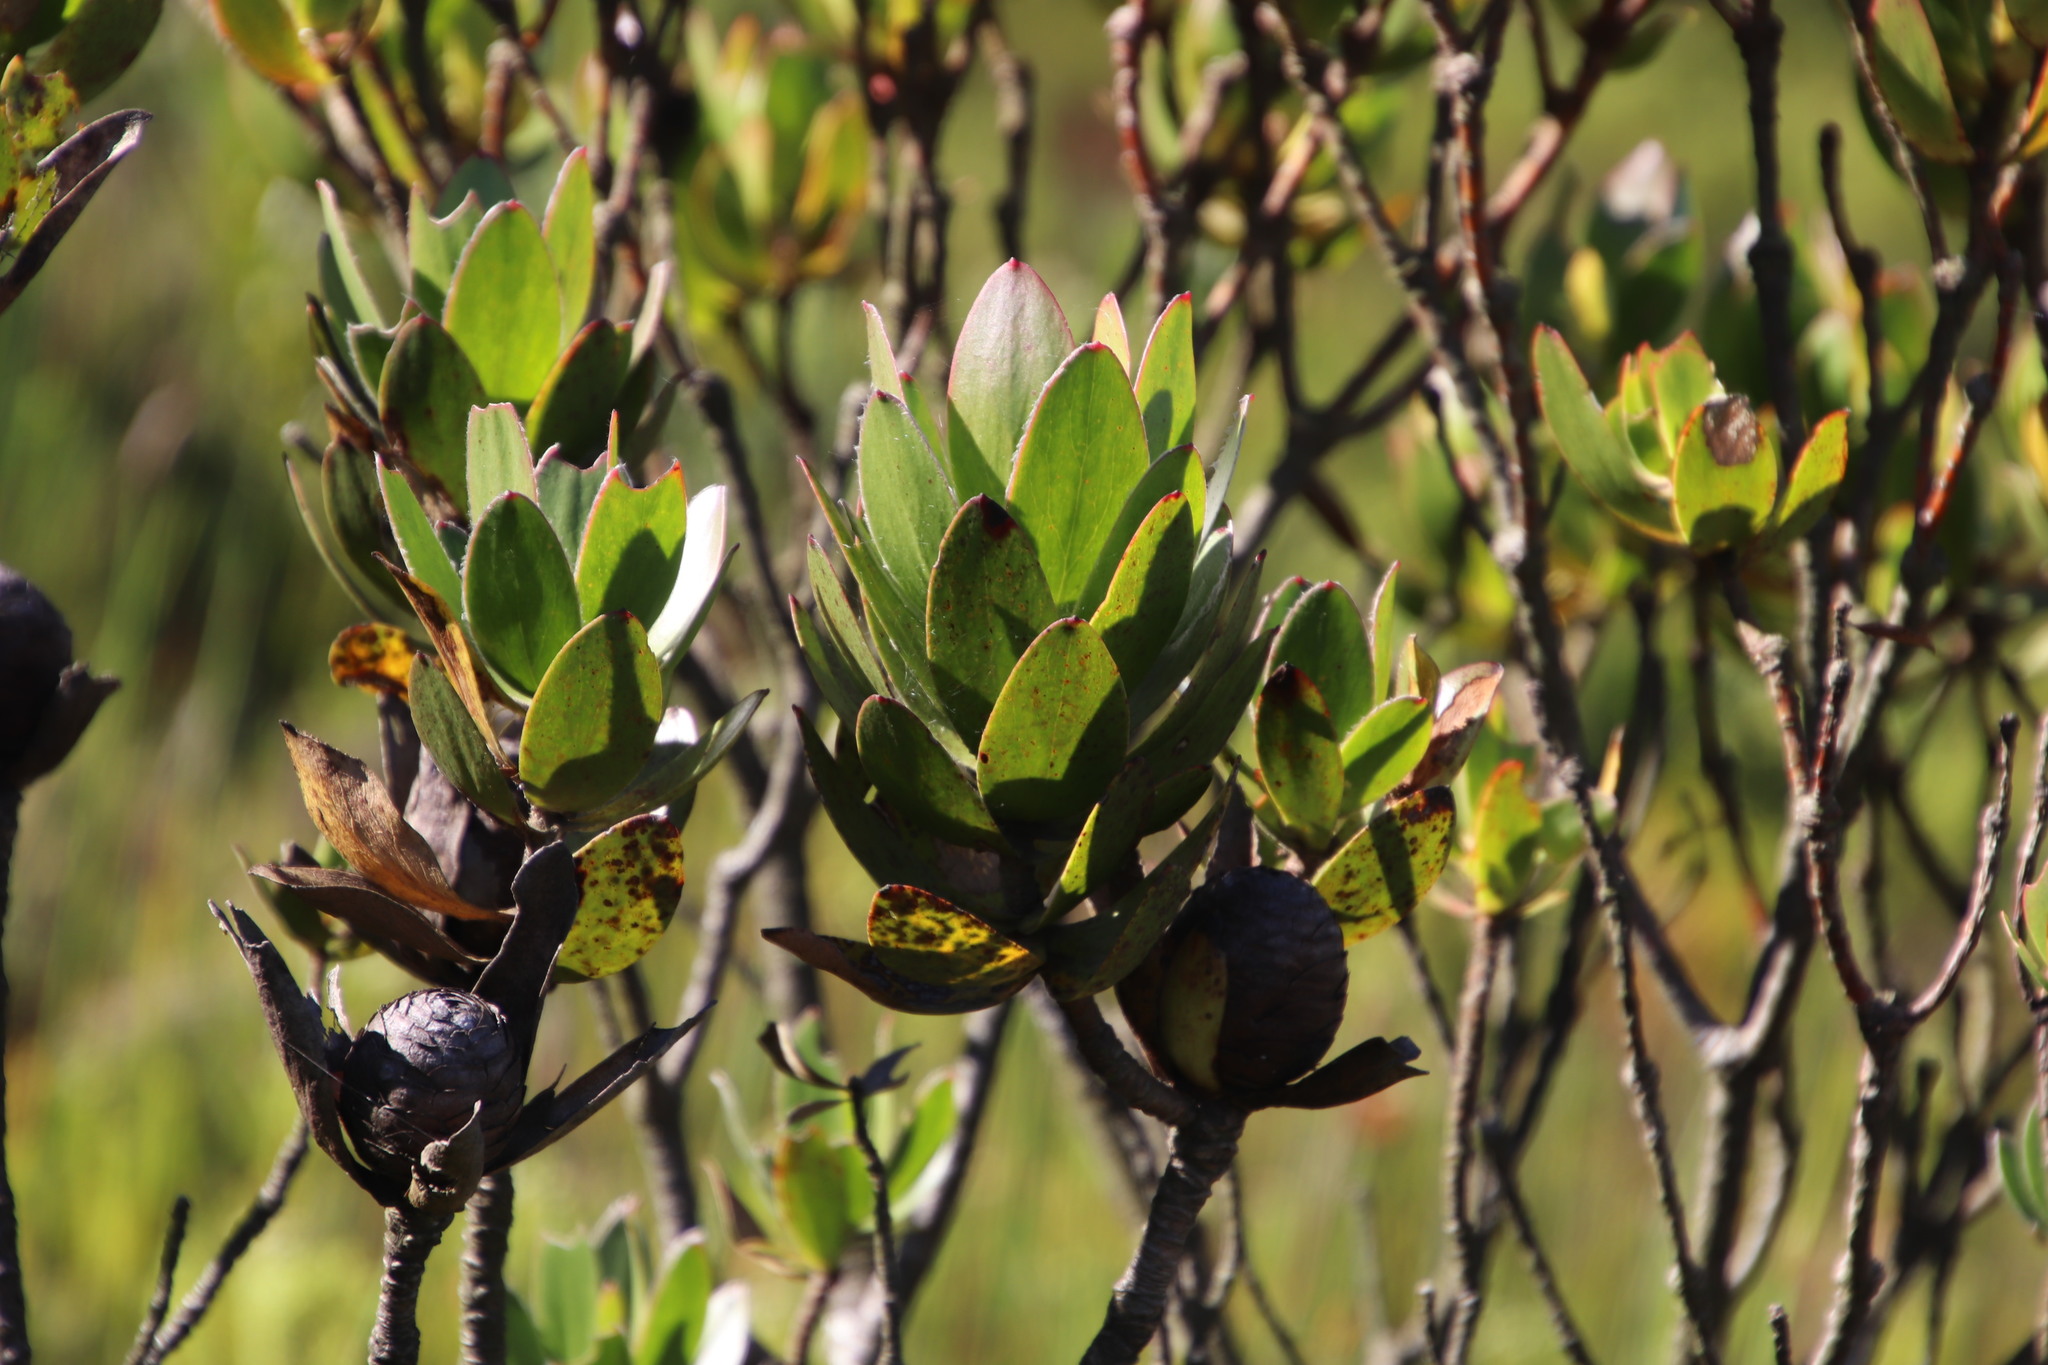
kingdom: Plantae
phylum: Tracheophyta
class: Magnoliopsida
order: Proteales
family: Proteaceae
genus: Leucadendron
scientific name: Leucadendron gandogeri
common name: Broad-leaf conebush
